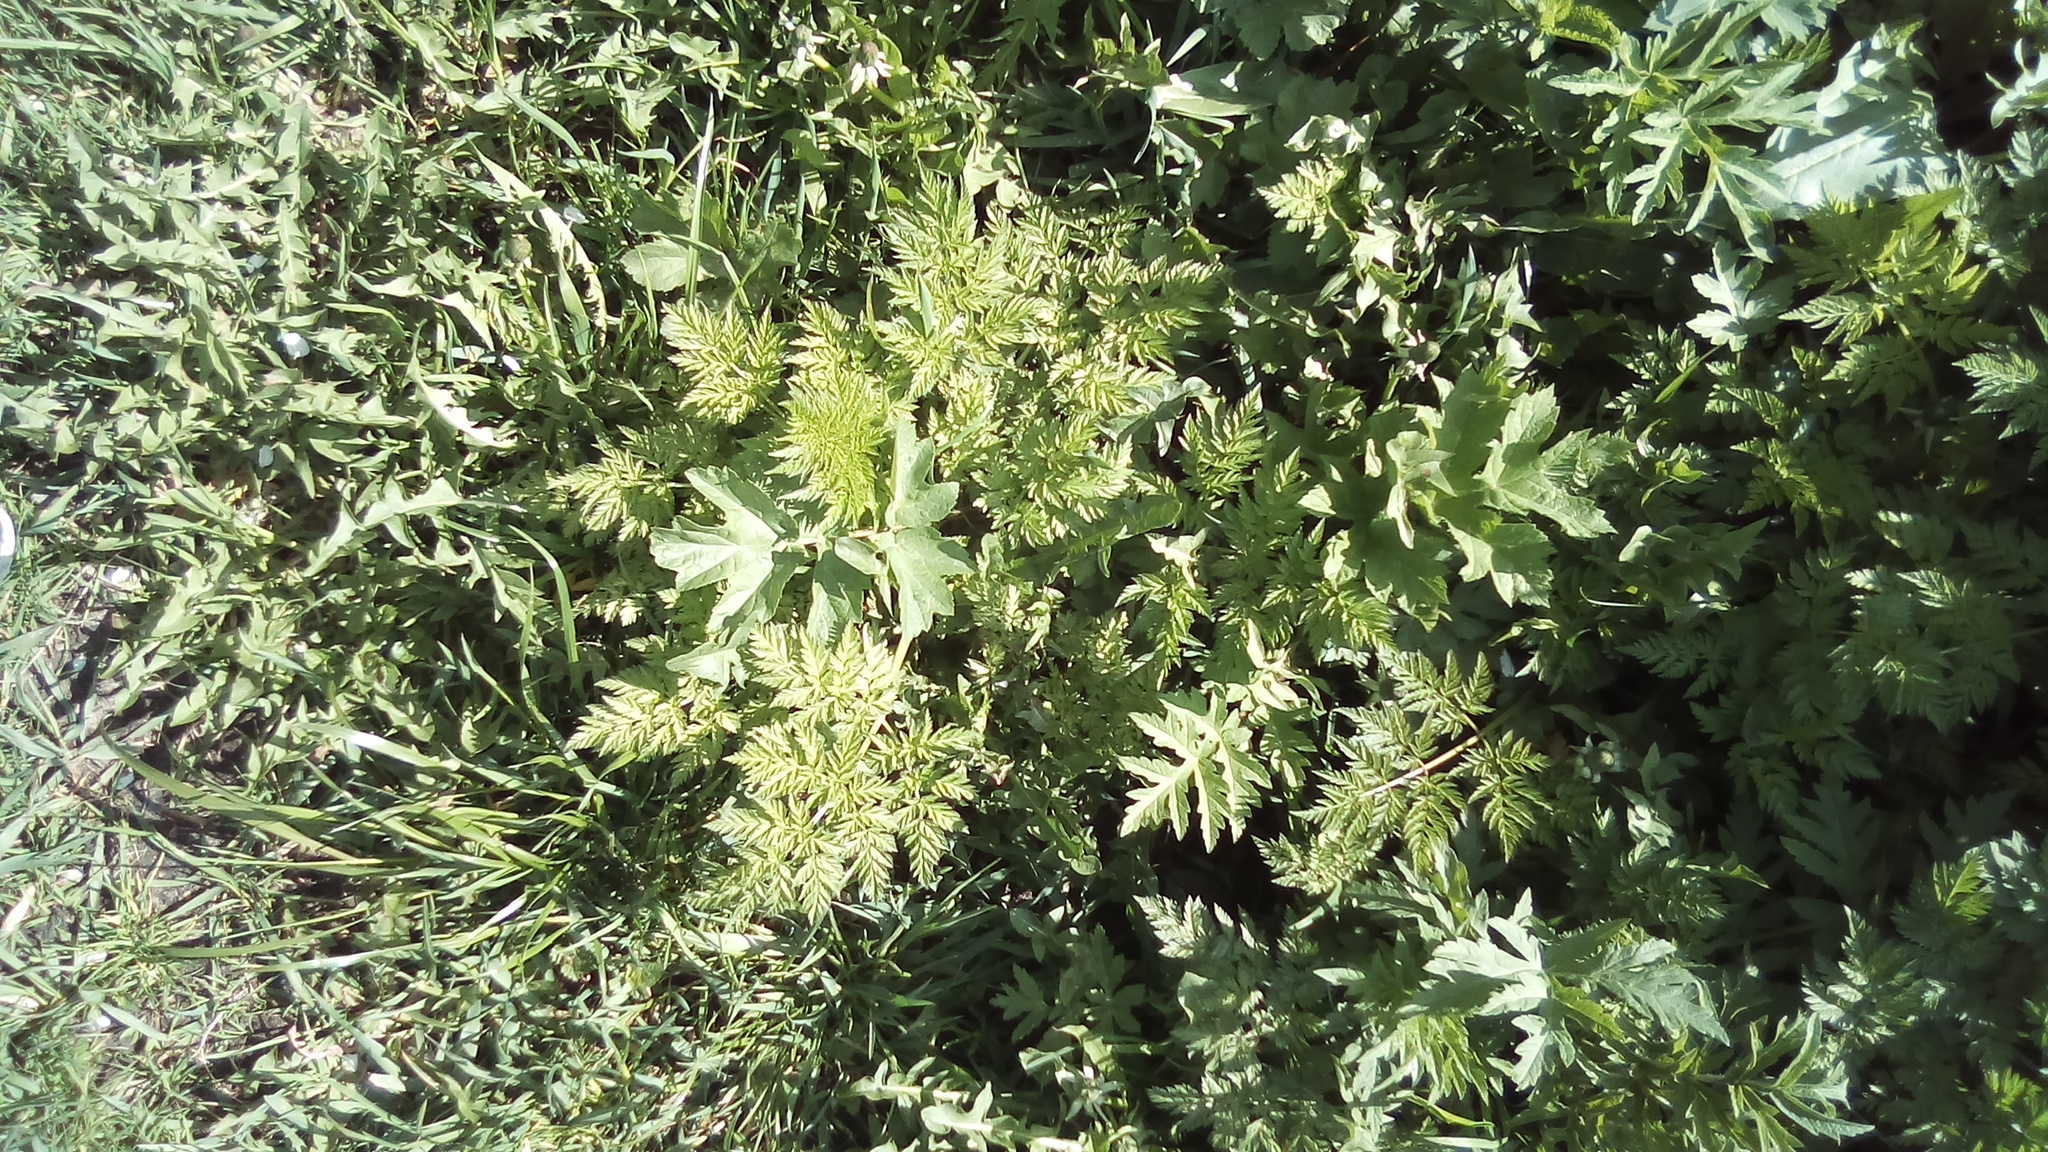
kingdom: Plantae
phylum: Tracheophyta
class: Magnoliopsida
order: Apiales
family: Apiaceae
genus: Heracleum
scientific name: Heracleum sphondylium
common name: Hogweed
